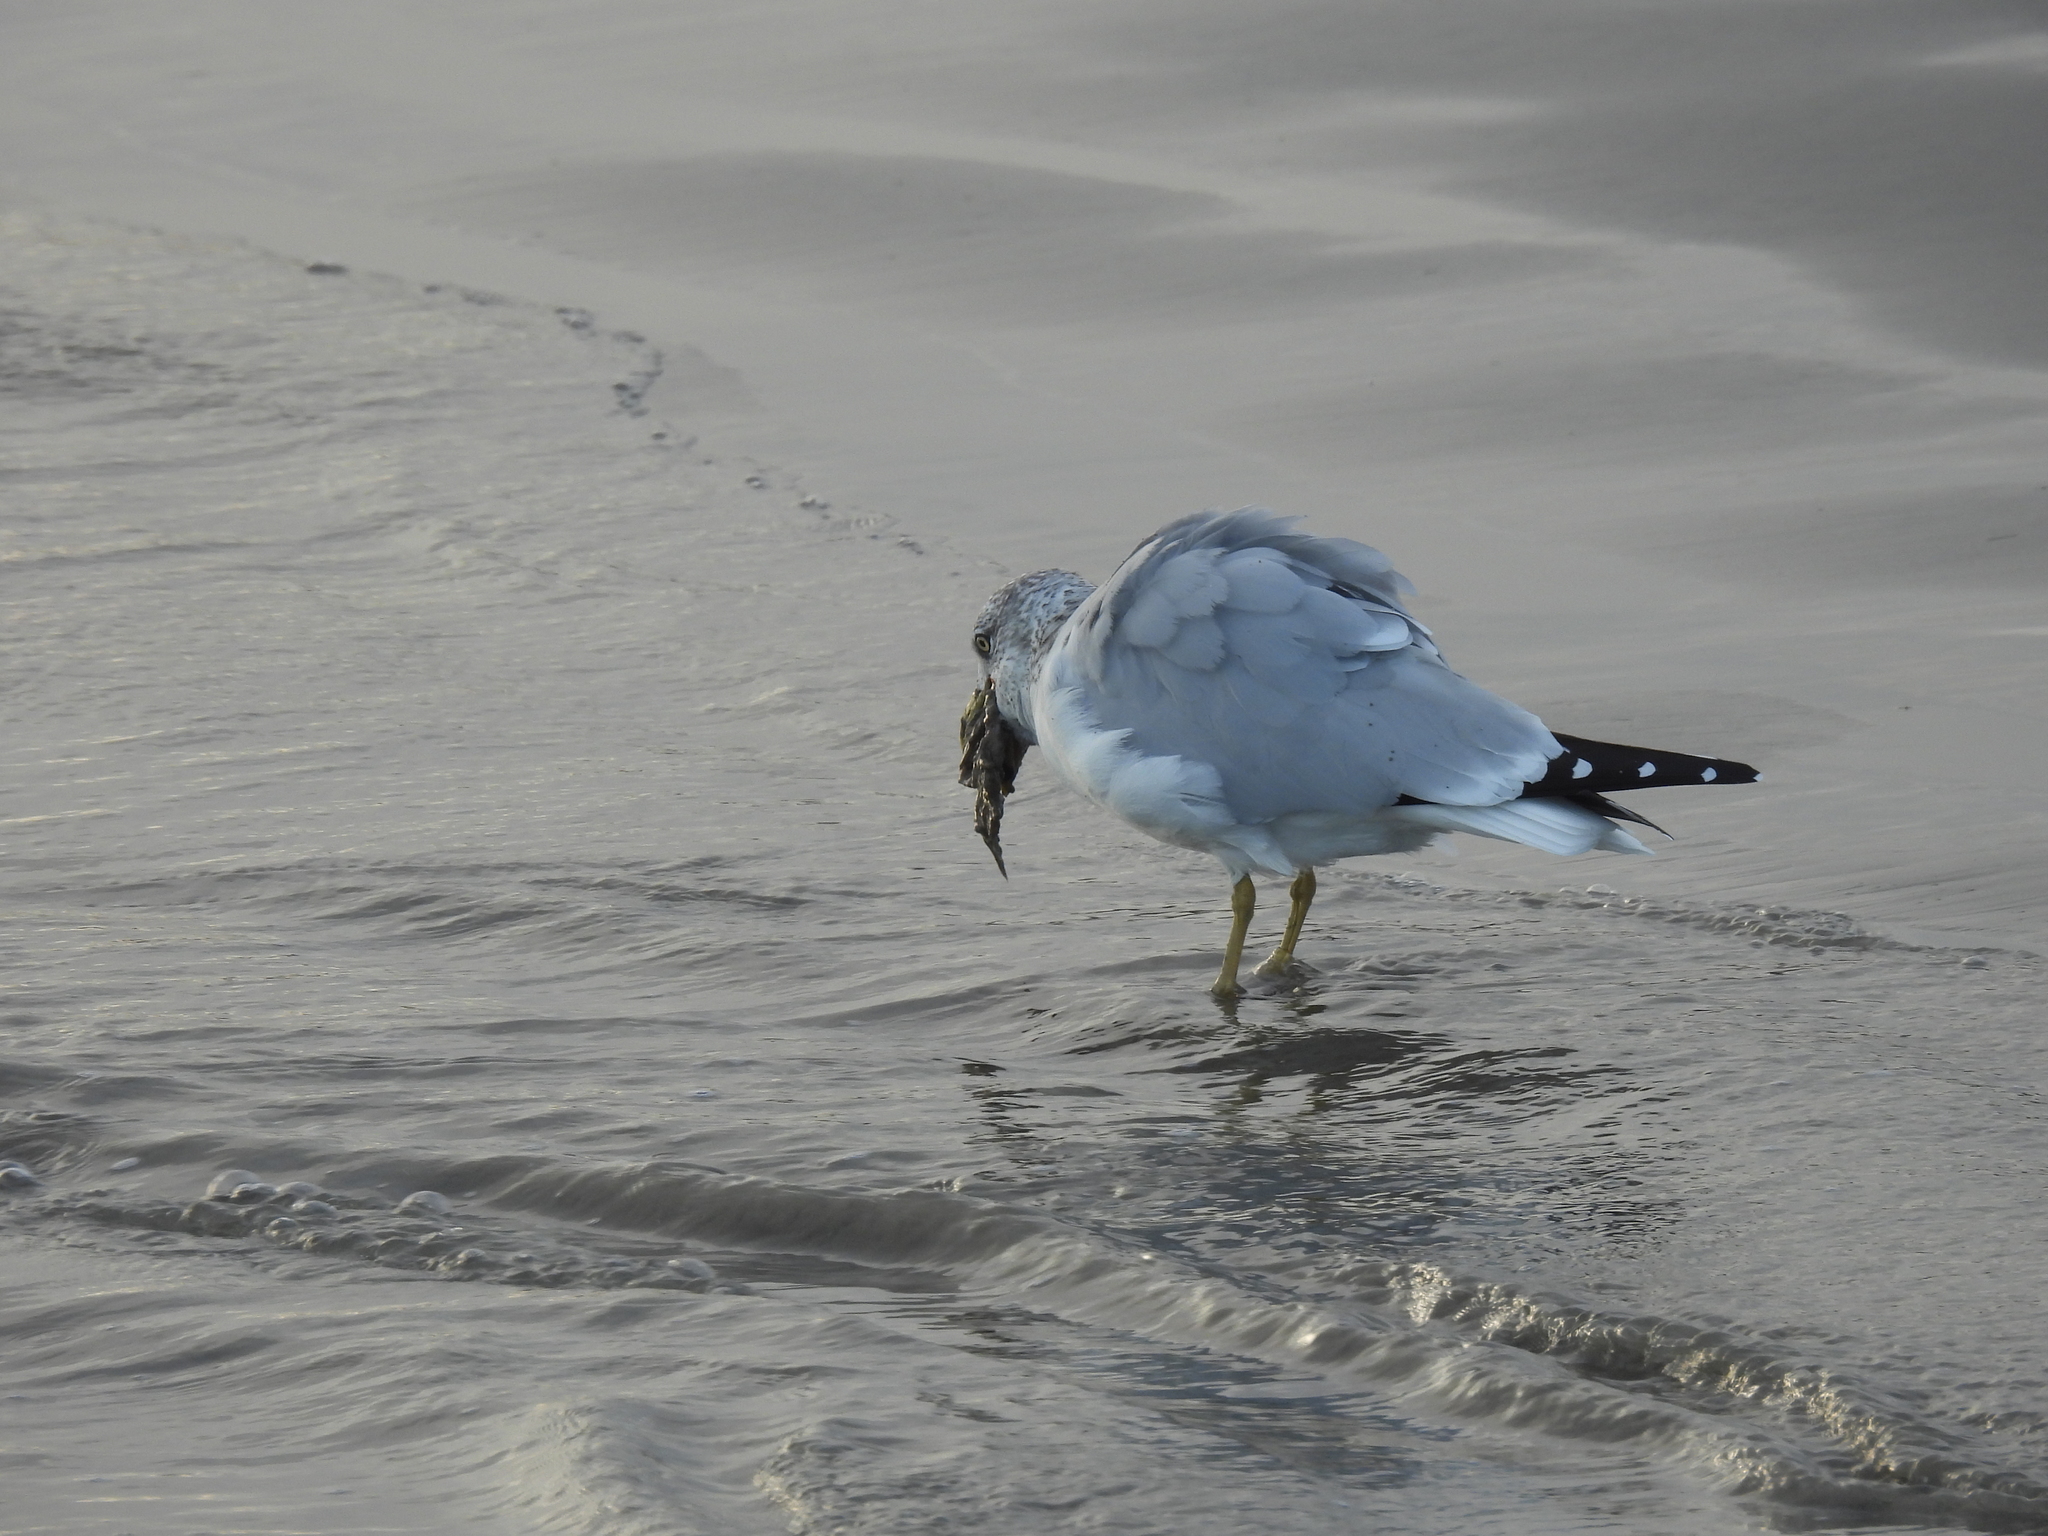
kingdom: Animalia
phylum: Chordata
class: Aves
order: Charadriiformes
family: Laridae
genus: Larus
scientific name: Larus delawarensis
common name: Ring-billed gull
